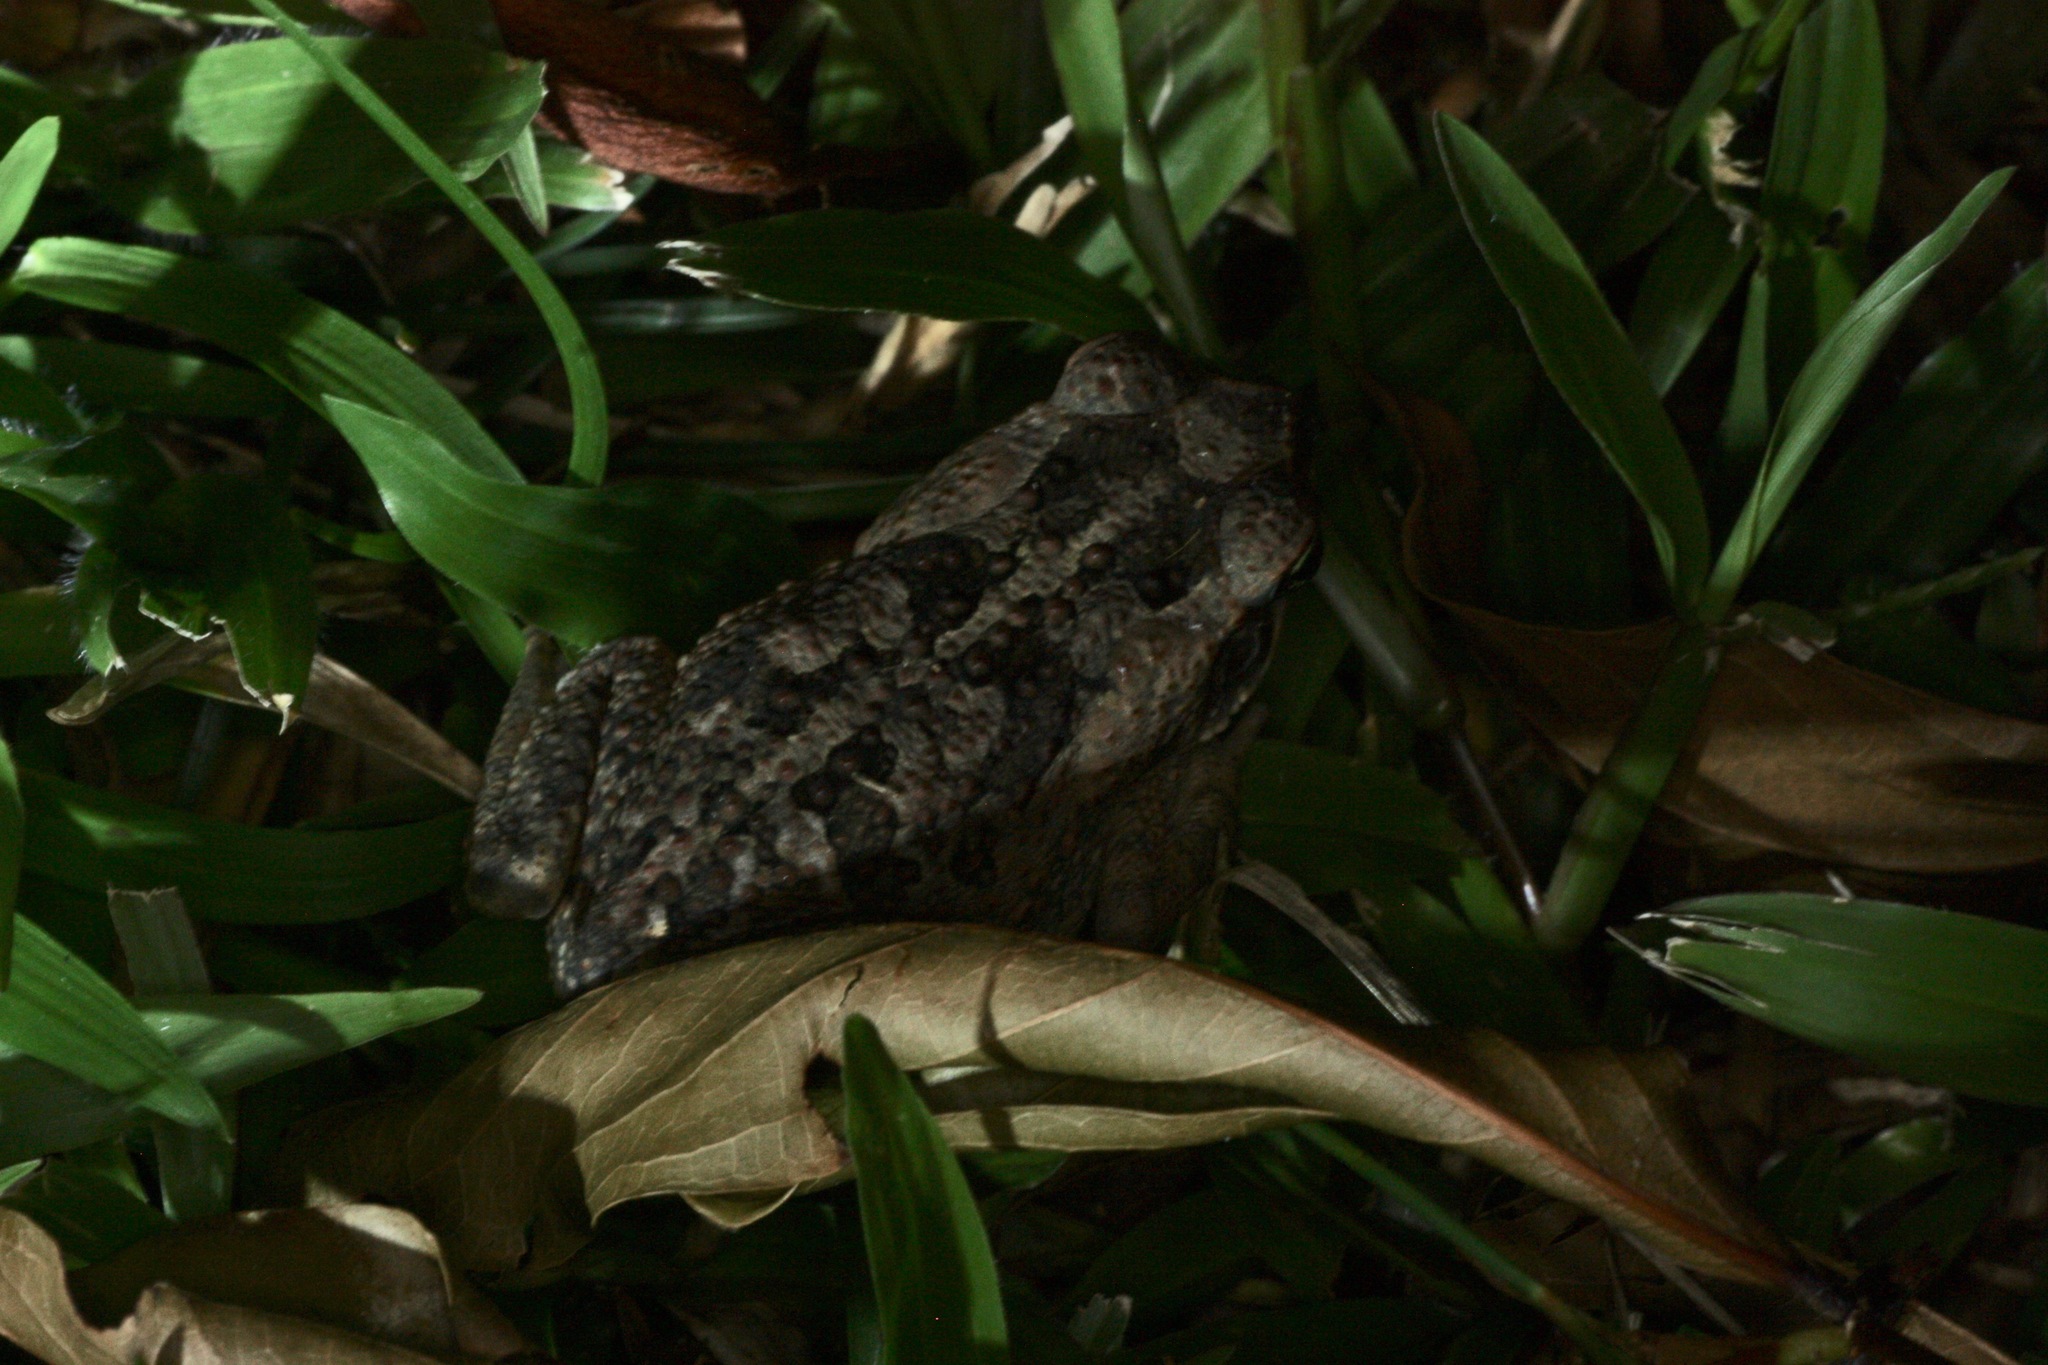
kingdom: Animalia
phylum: Chordata
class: Amphibia
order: Anura
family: Bufonidae
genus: Rhinella
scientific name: Rhinella horribilis
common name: Mesoamerican cane toad
